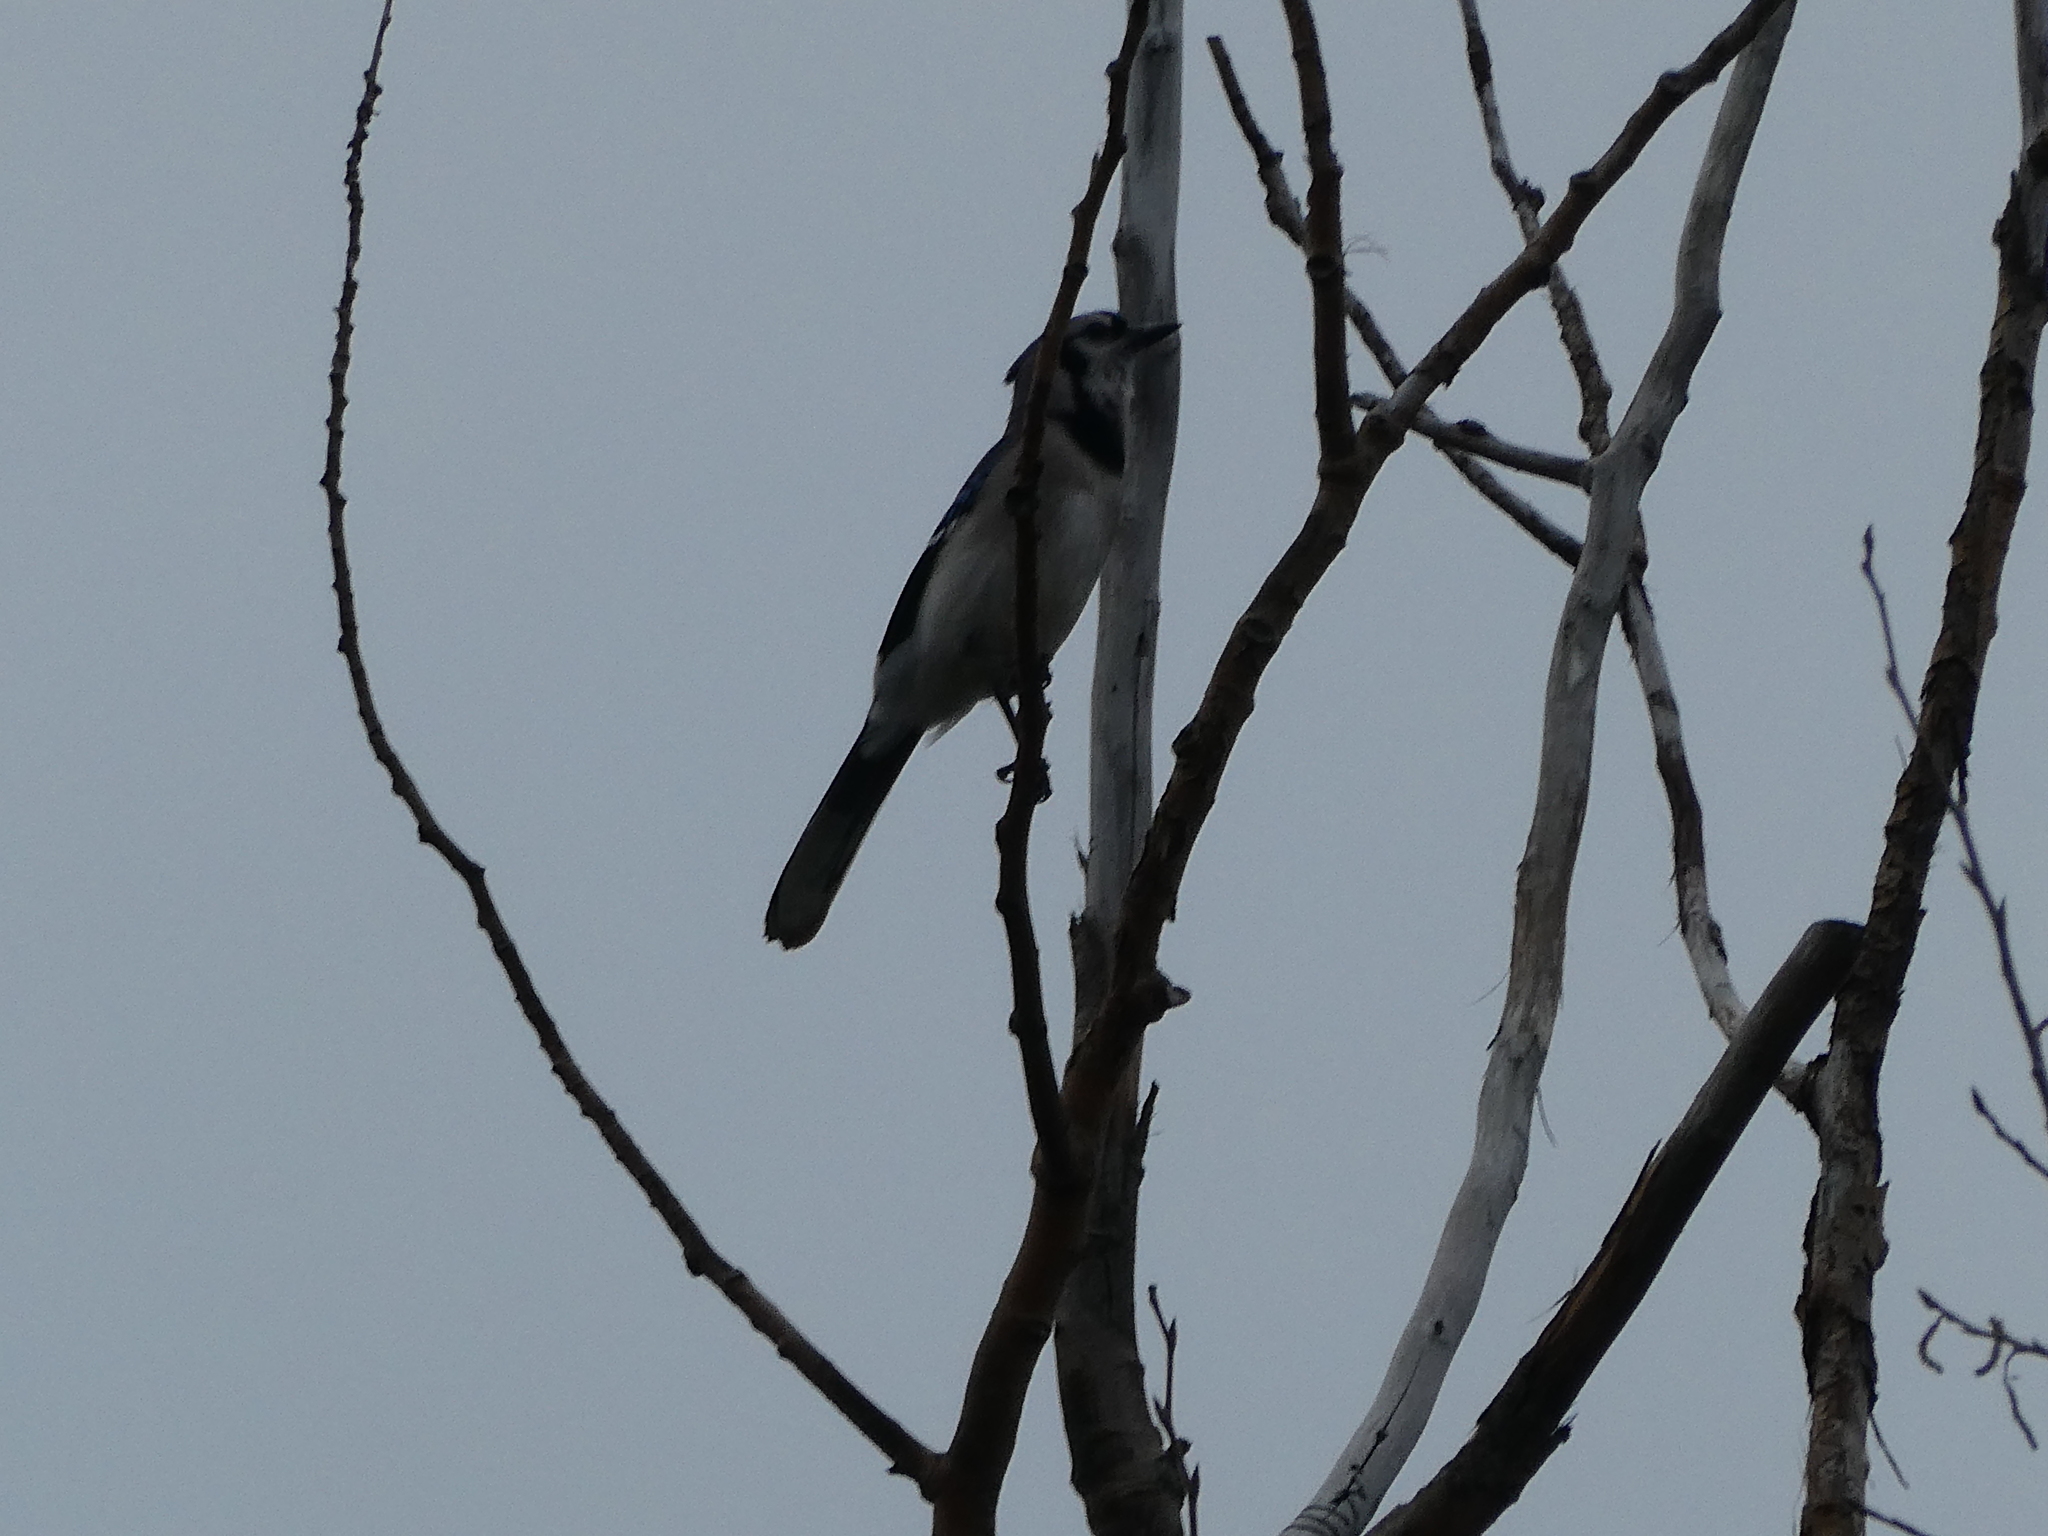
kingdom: Animalia
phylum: Chordata
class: Aves
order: Passeriformes
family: Corvidae
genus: Cyanocitta
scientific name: Cyanocitta cristata
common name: Blue jay
